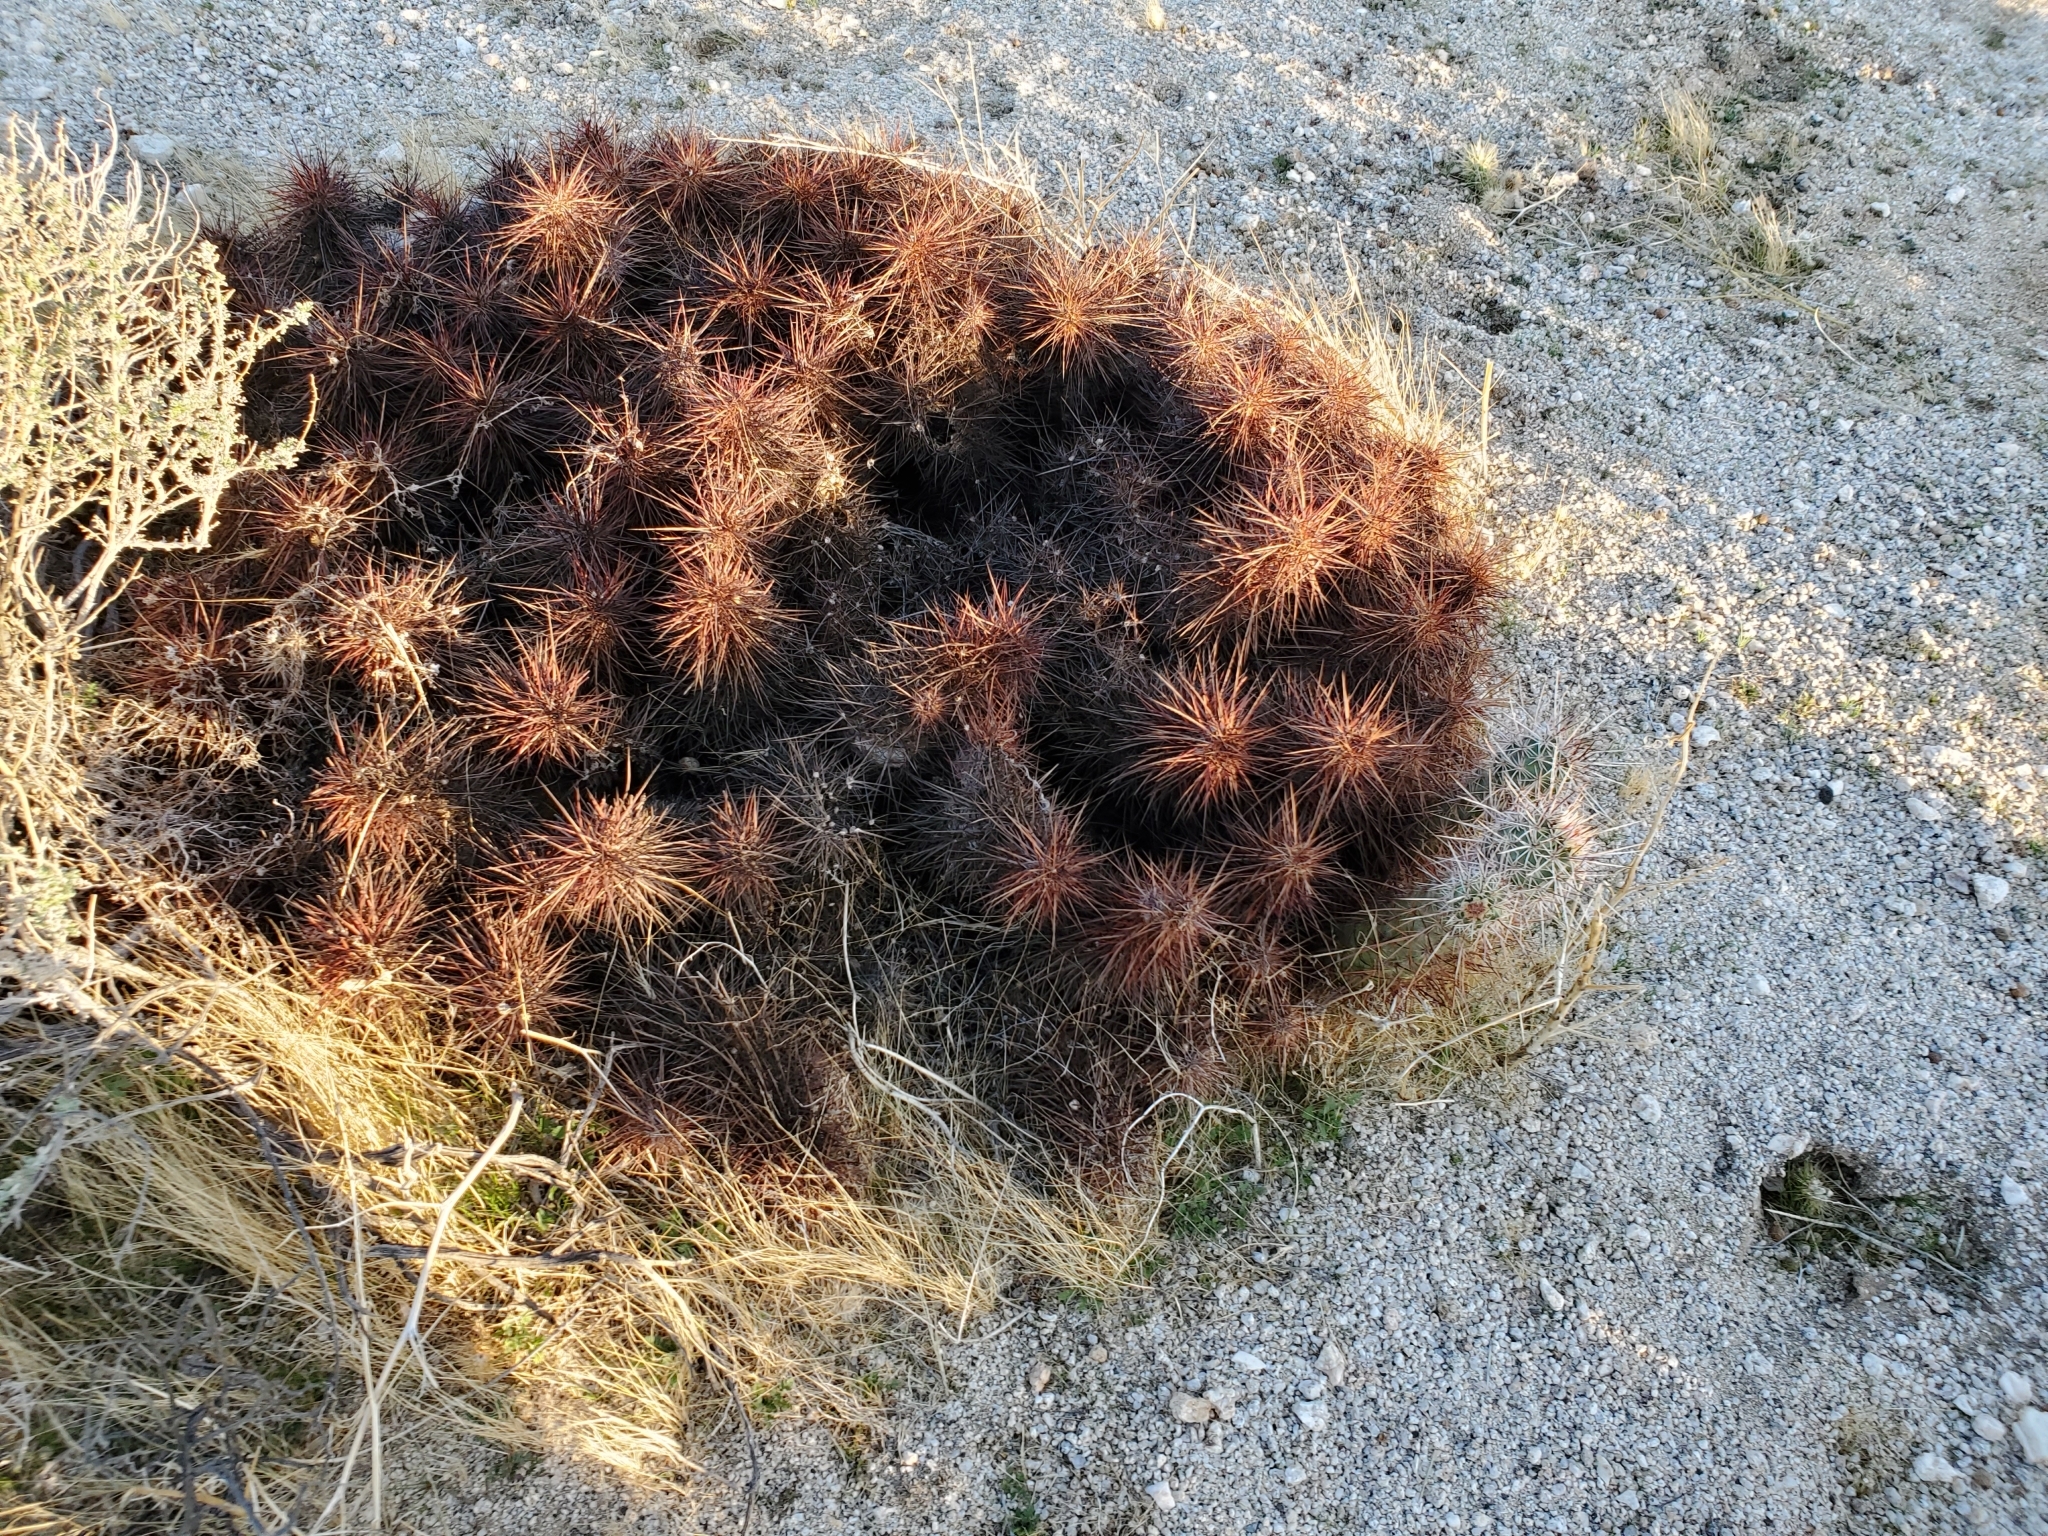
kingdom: Plantae
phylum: Tracheophyta
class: Magnoliopsida
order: Caryophyllales
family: Cactaceae
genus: Echinocereus
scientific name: Echinocereus engelmannii
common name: Engelmann's hedgehog cactus
